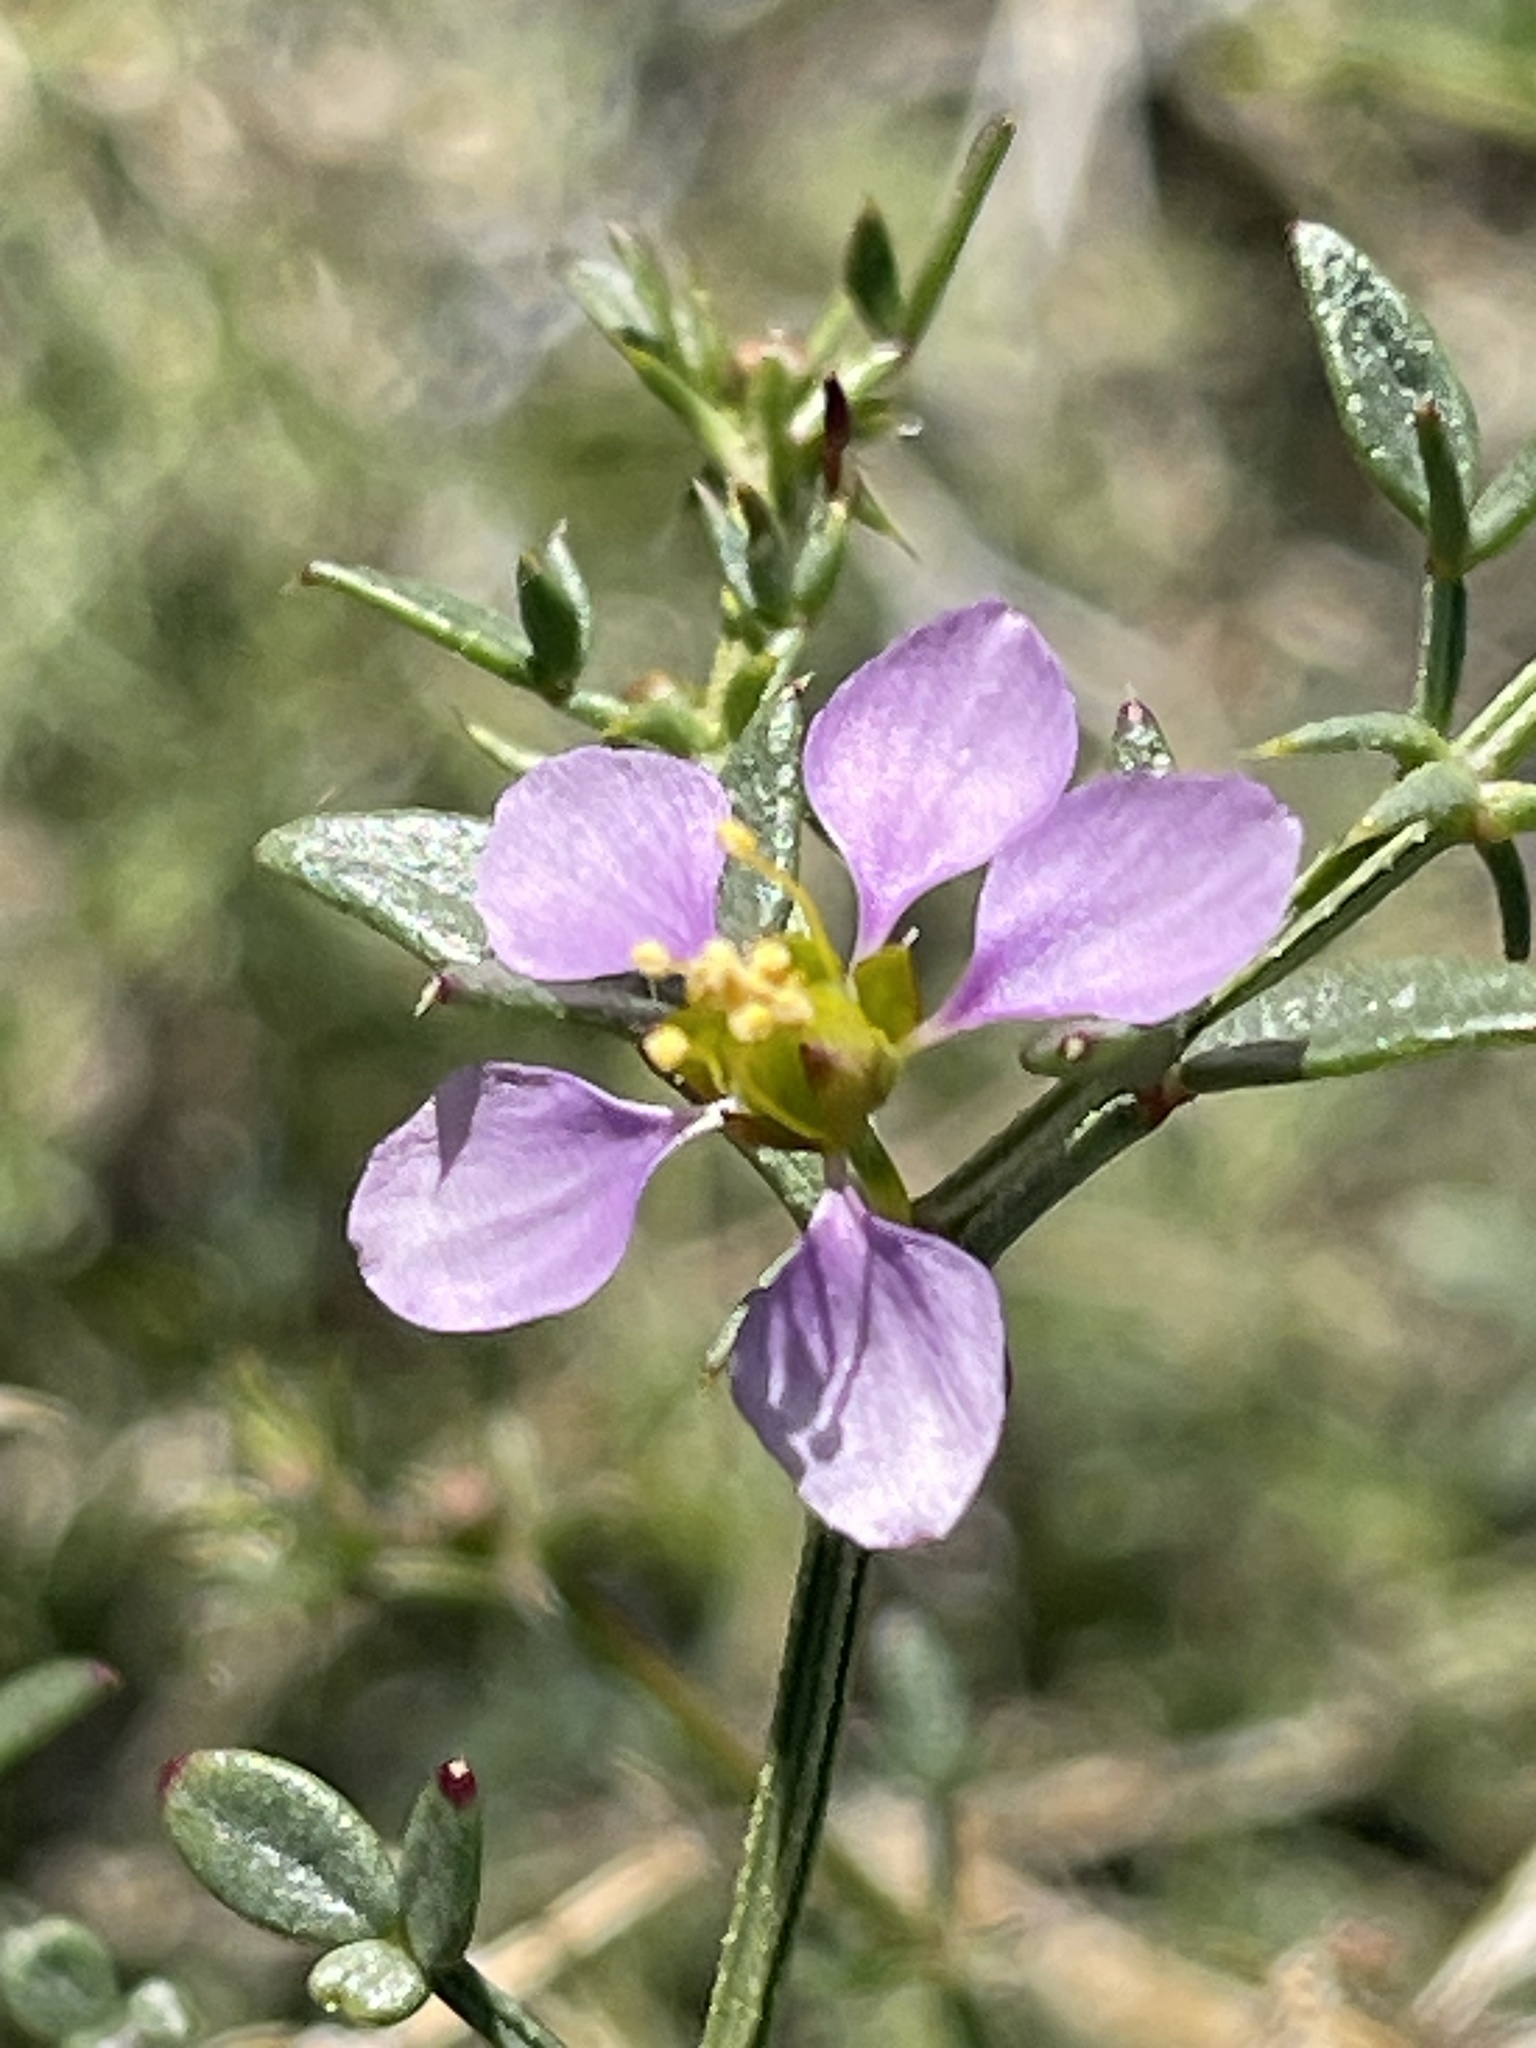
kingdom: Plantae
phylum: Tracheophyta
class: Magnoliopsida
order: Zygophyllales
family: Zygophyllaceae
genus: Fagonia
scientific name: Fagonia laevis
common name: California fagonbush
